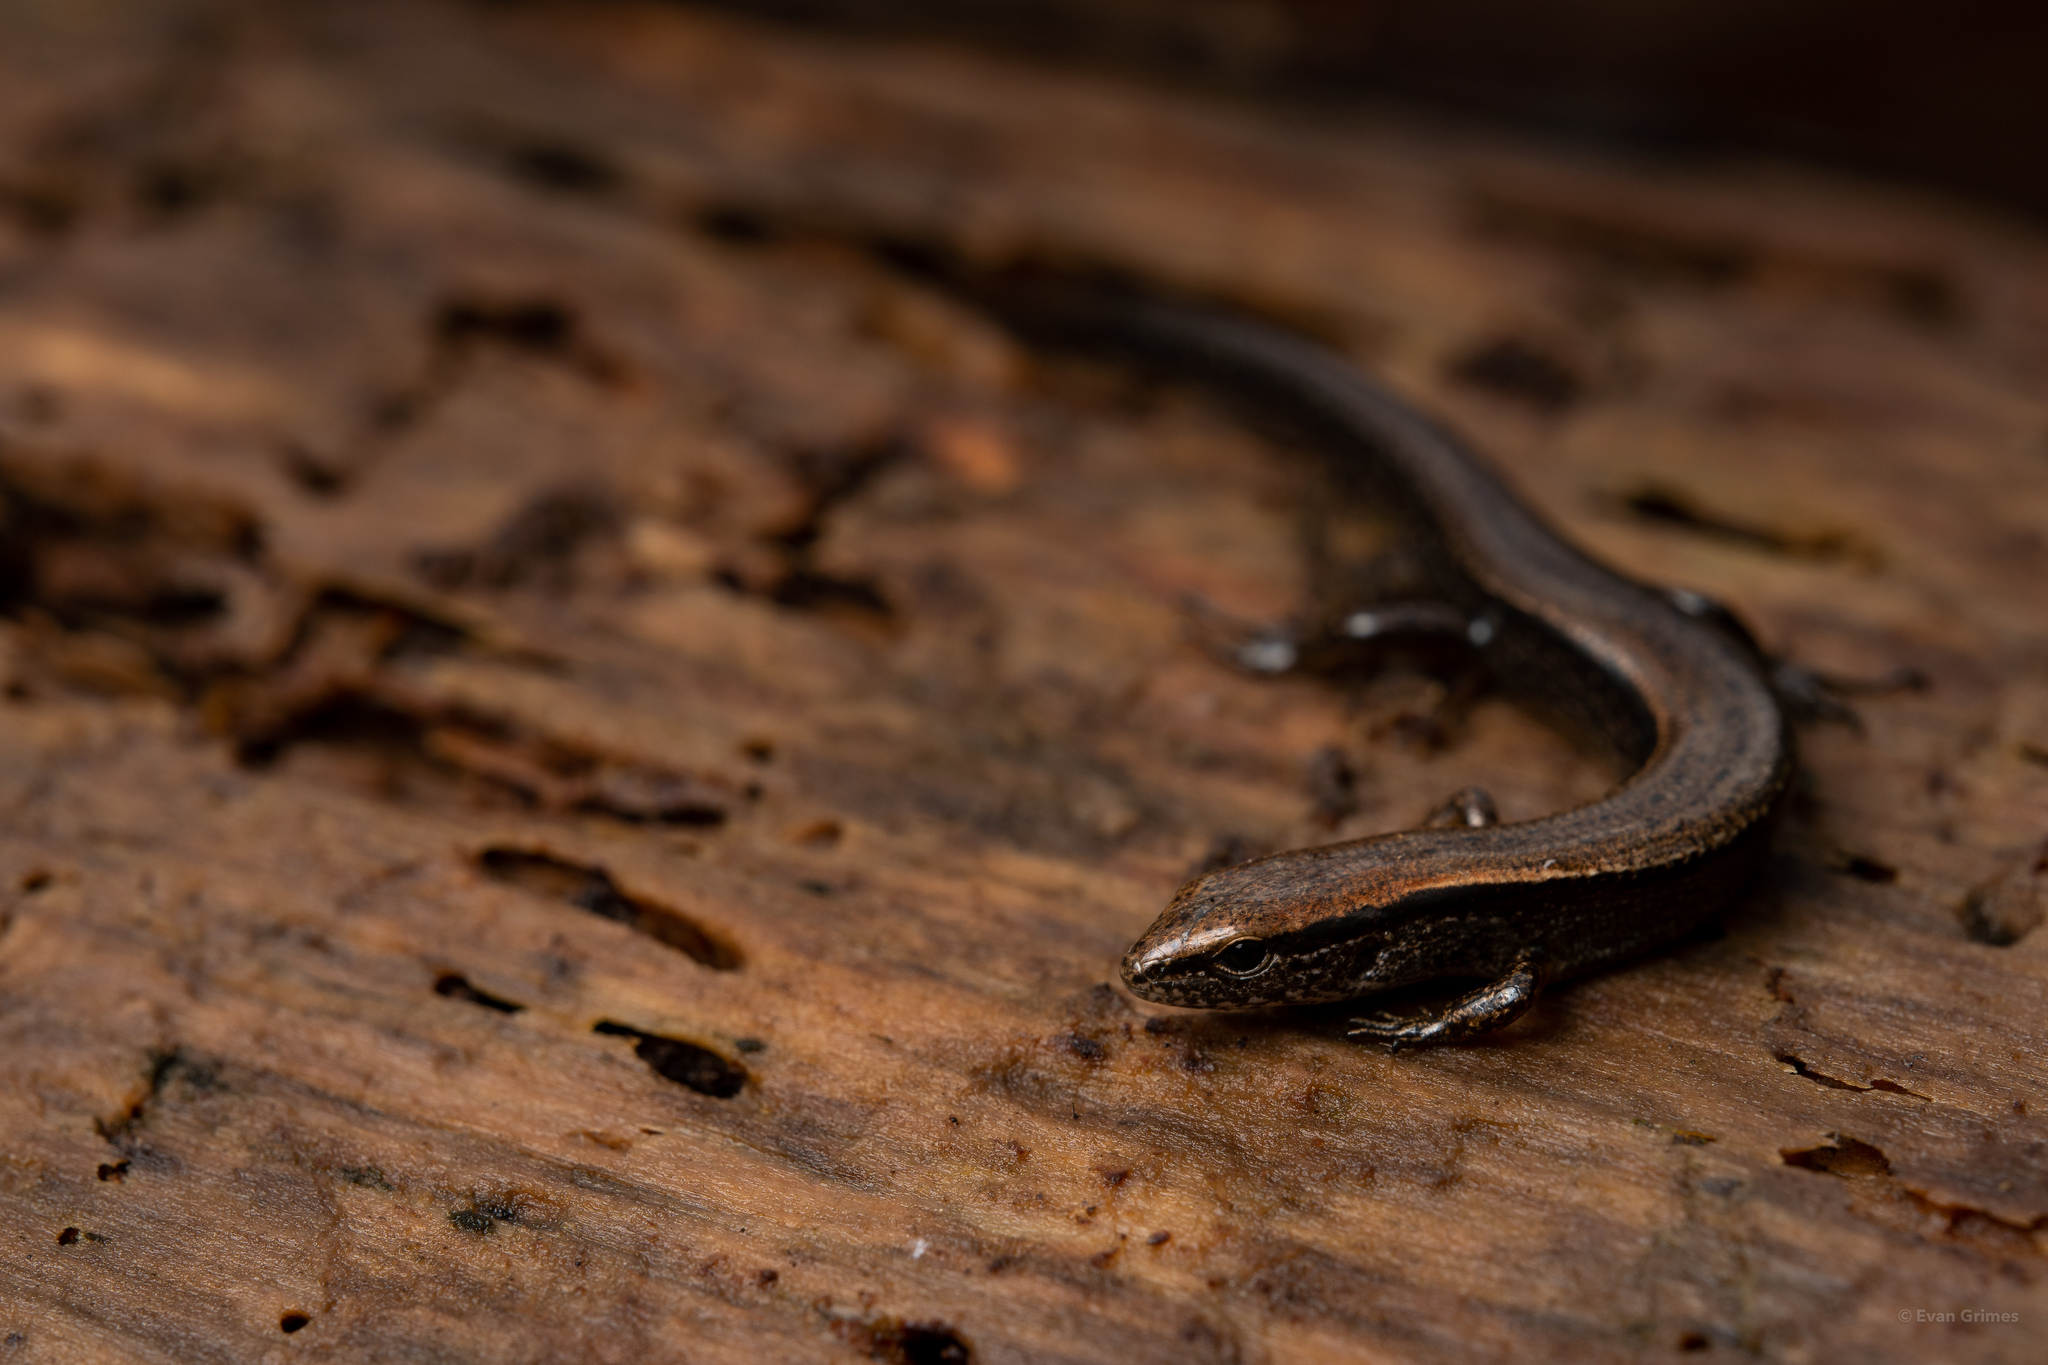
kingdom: Animalia
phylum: Chordata
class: Squamata
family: Scincidae
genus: Scincella
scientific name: Scincella lateralis
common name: Ground skink
